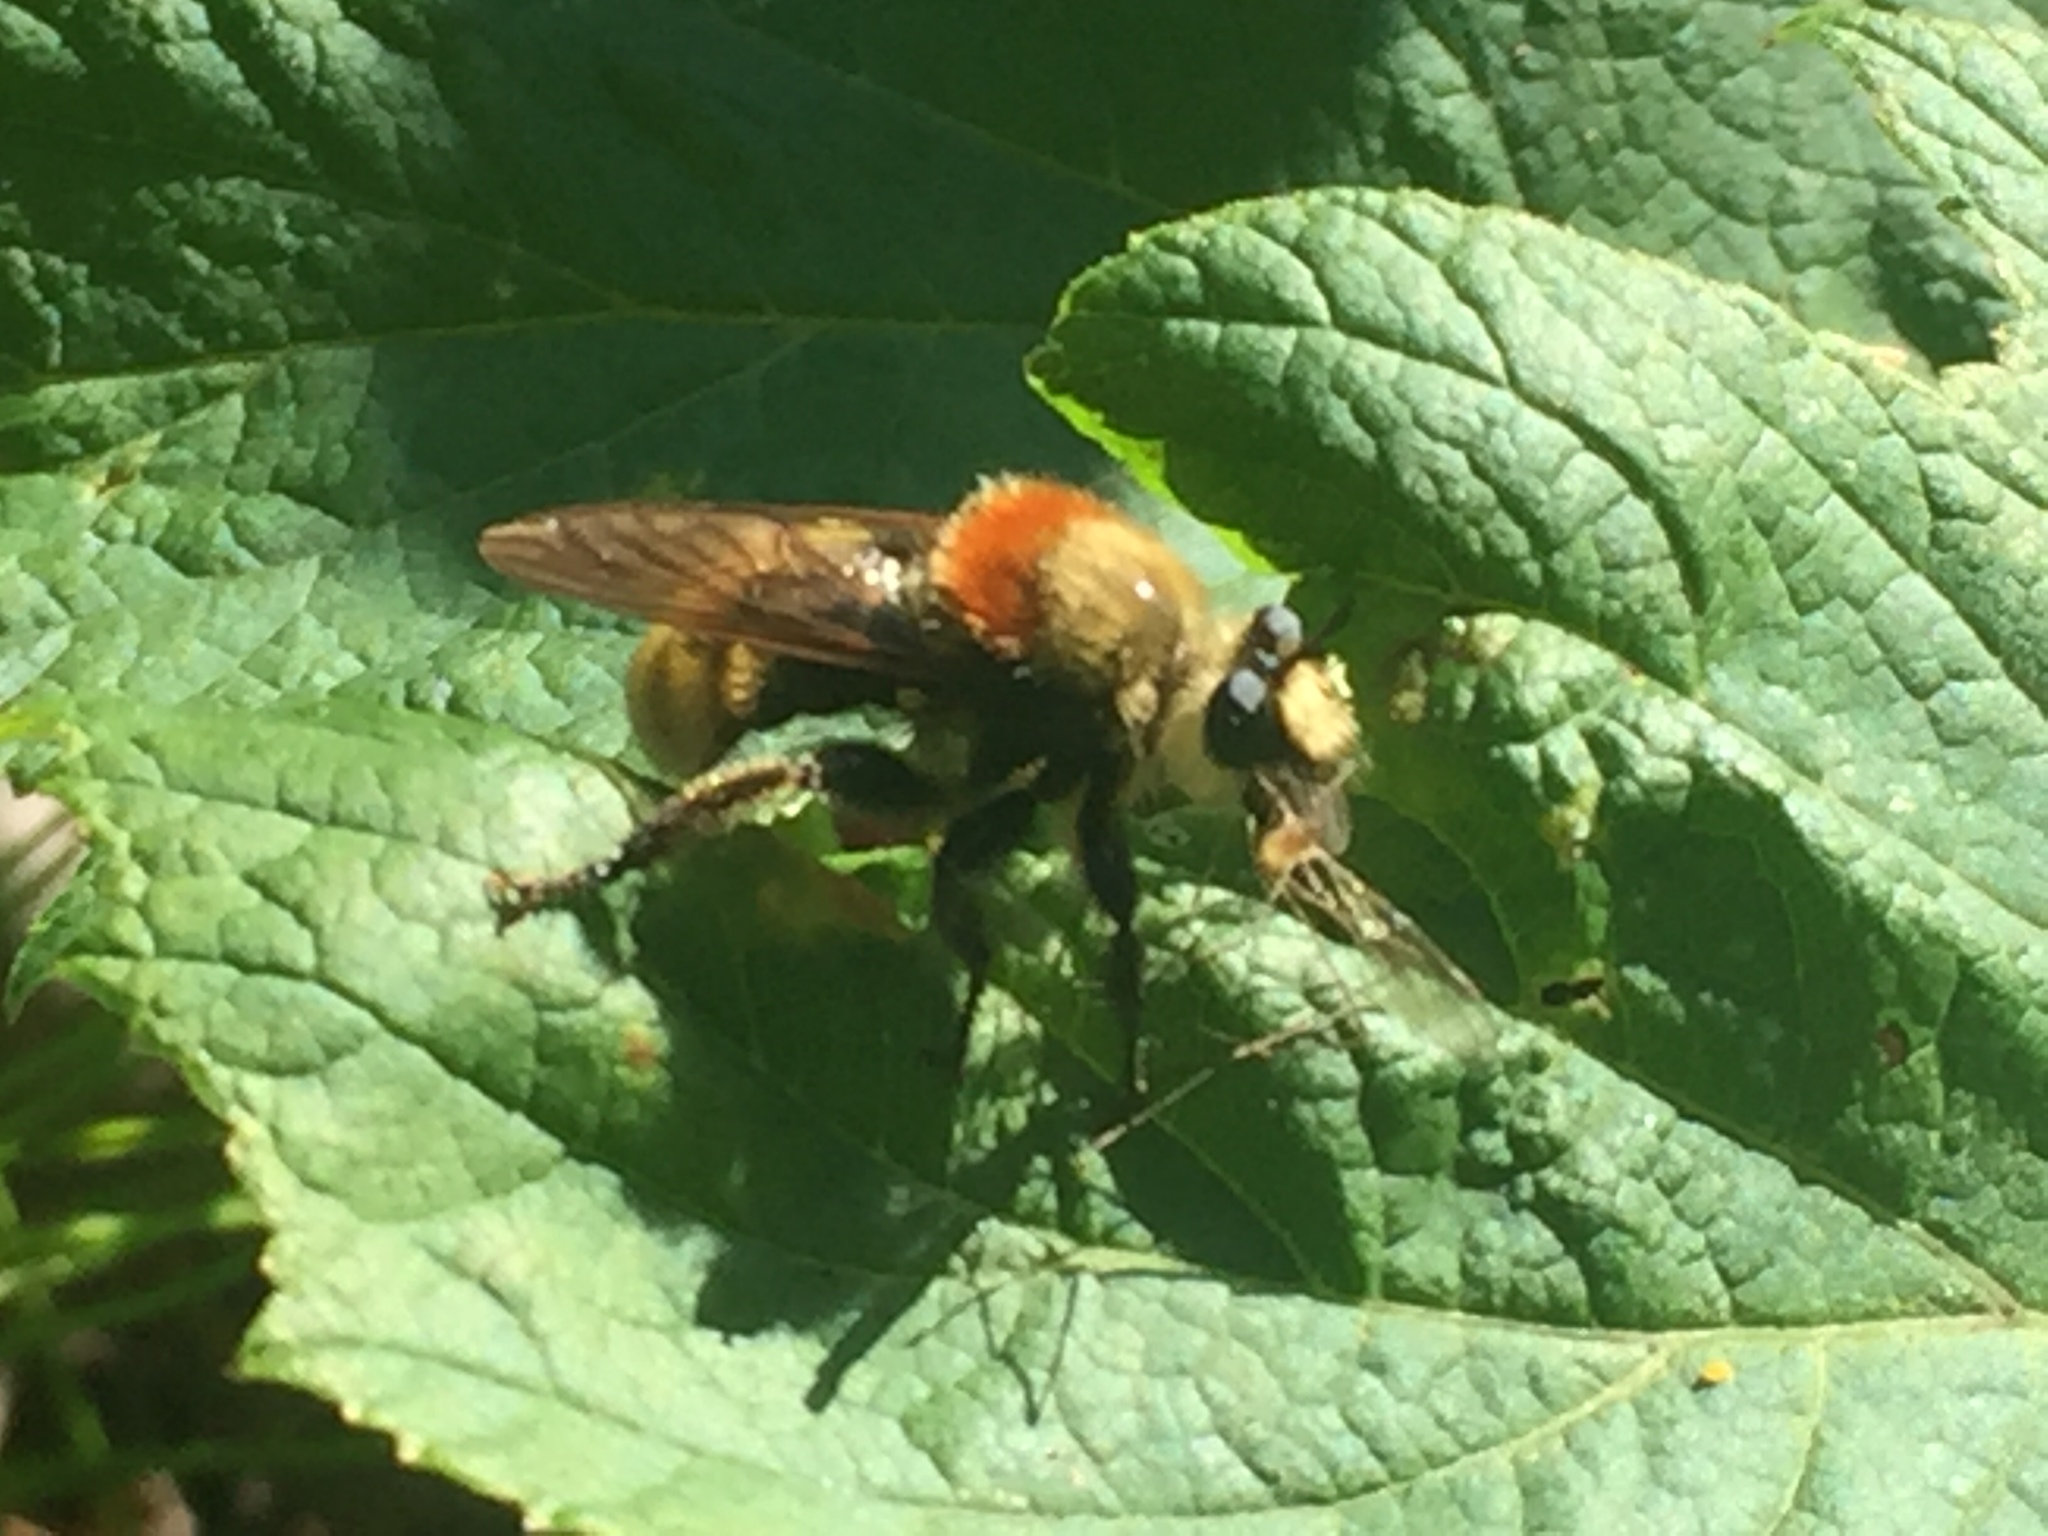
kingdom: Animalia
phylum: Arthropoda
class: Insecta
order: Diptera
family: Asilidae
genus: Laphria
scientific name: Laphria insignis
